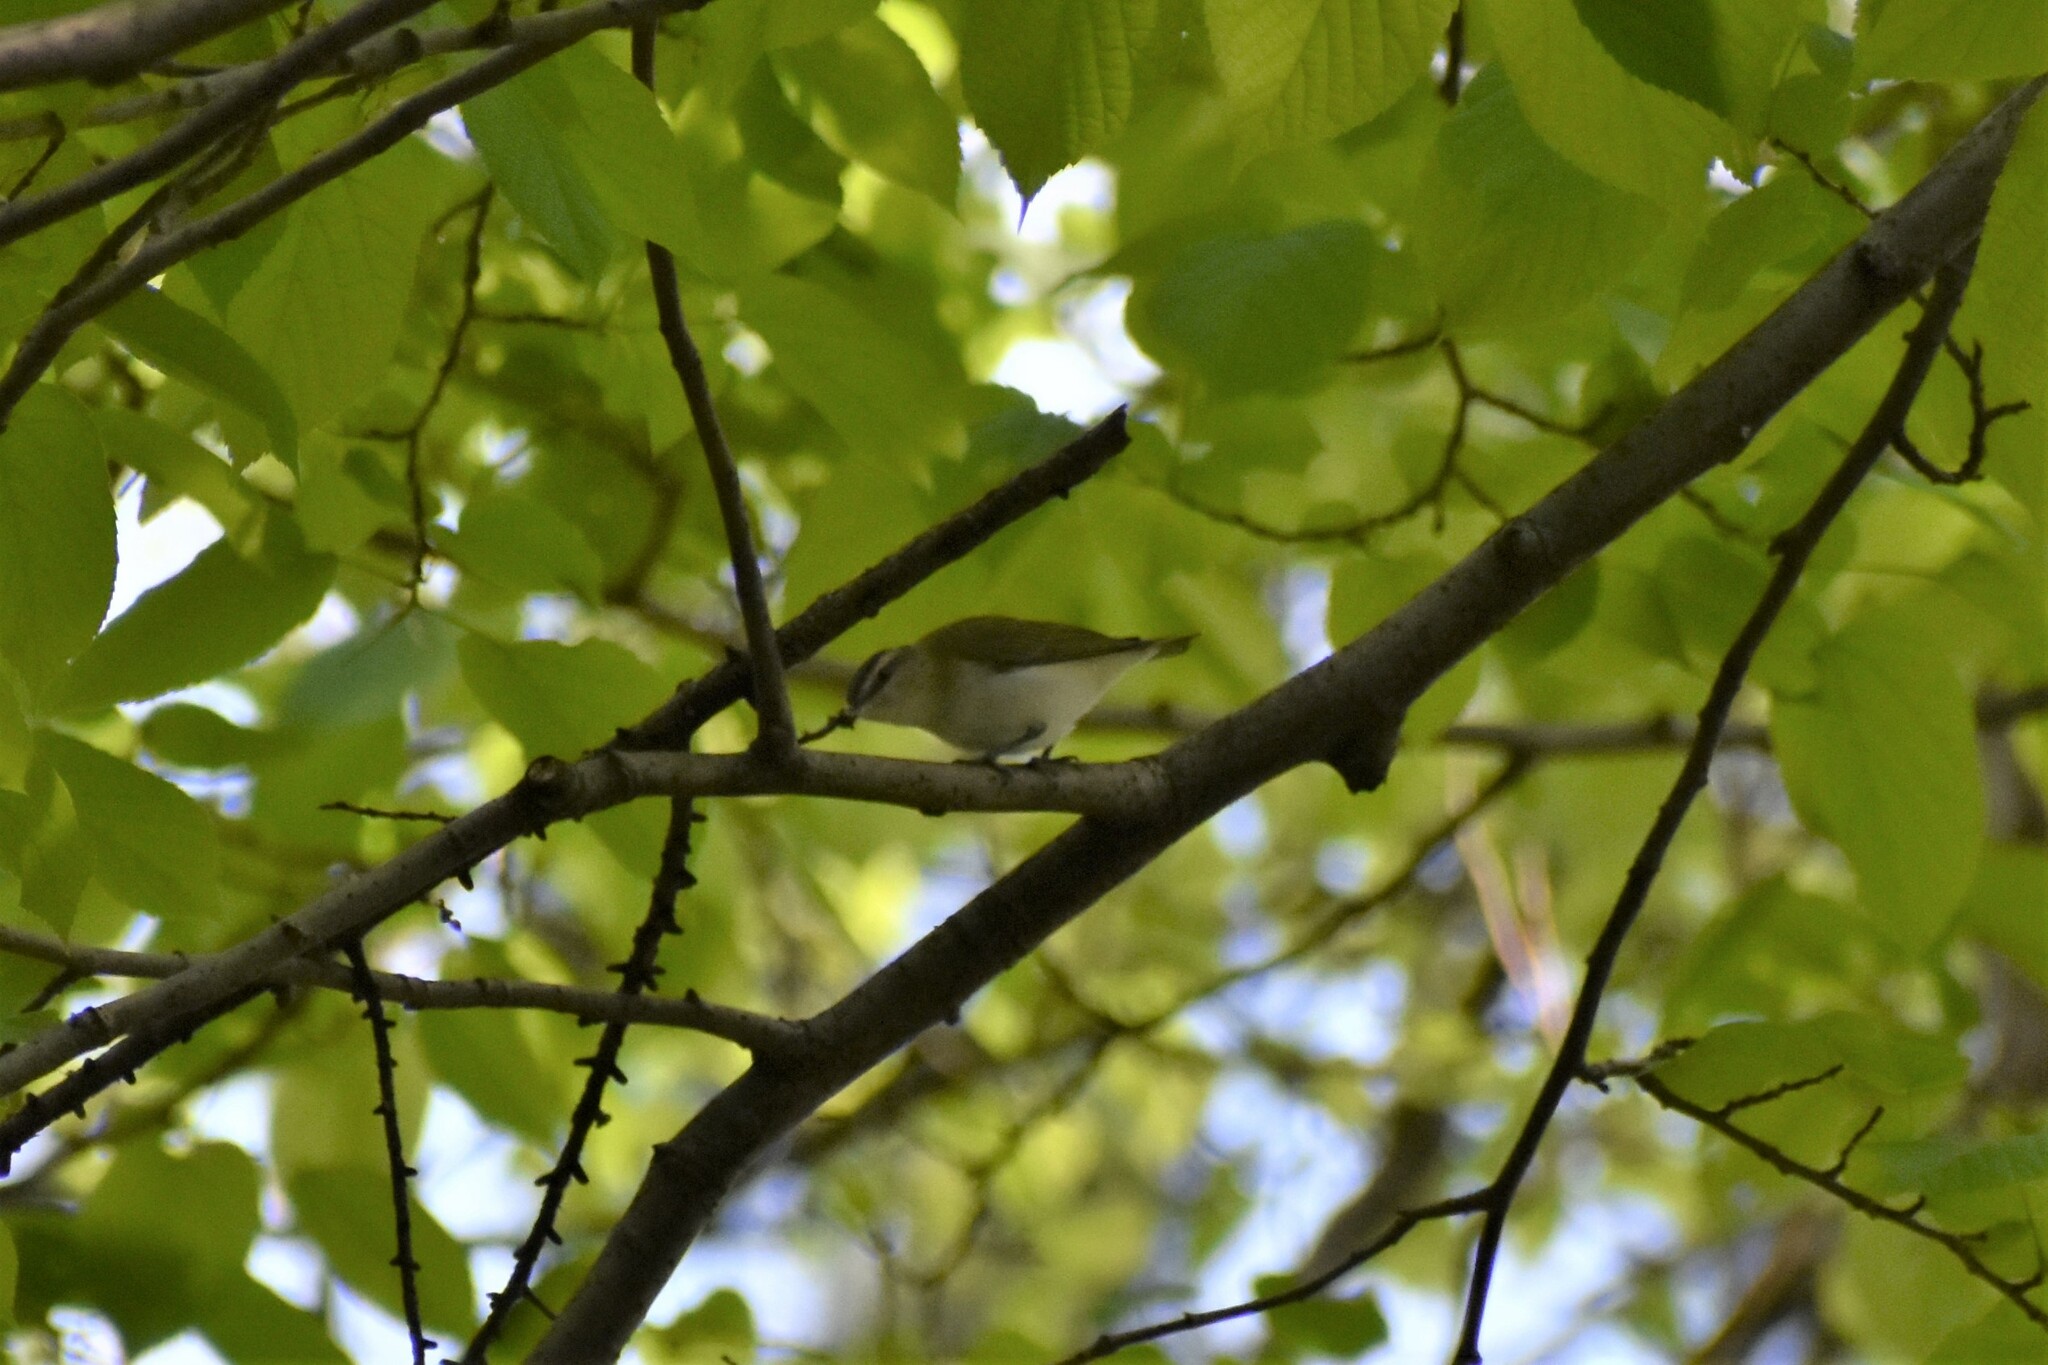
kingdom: Animalia
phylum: Chordata
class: Aves
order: Passeriformes
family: Vireonidae
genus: Vireo
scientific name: Vireo olivaceus
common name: Red-eyed vireo
